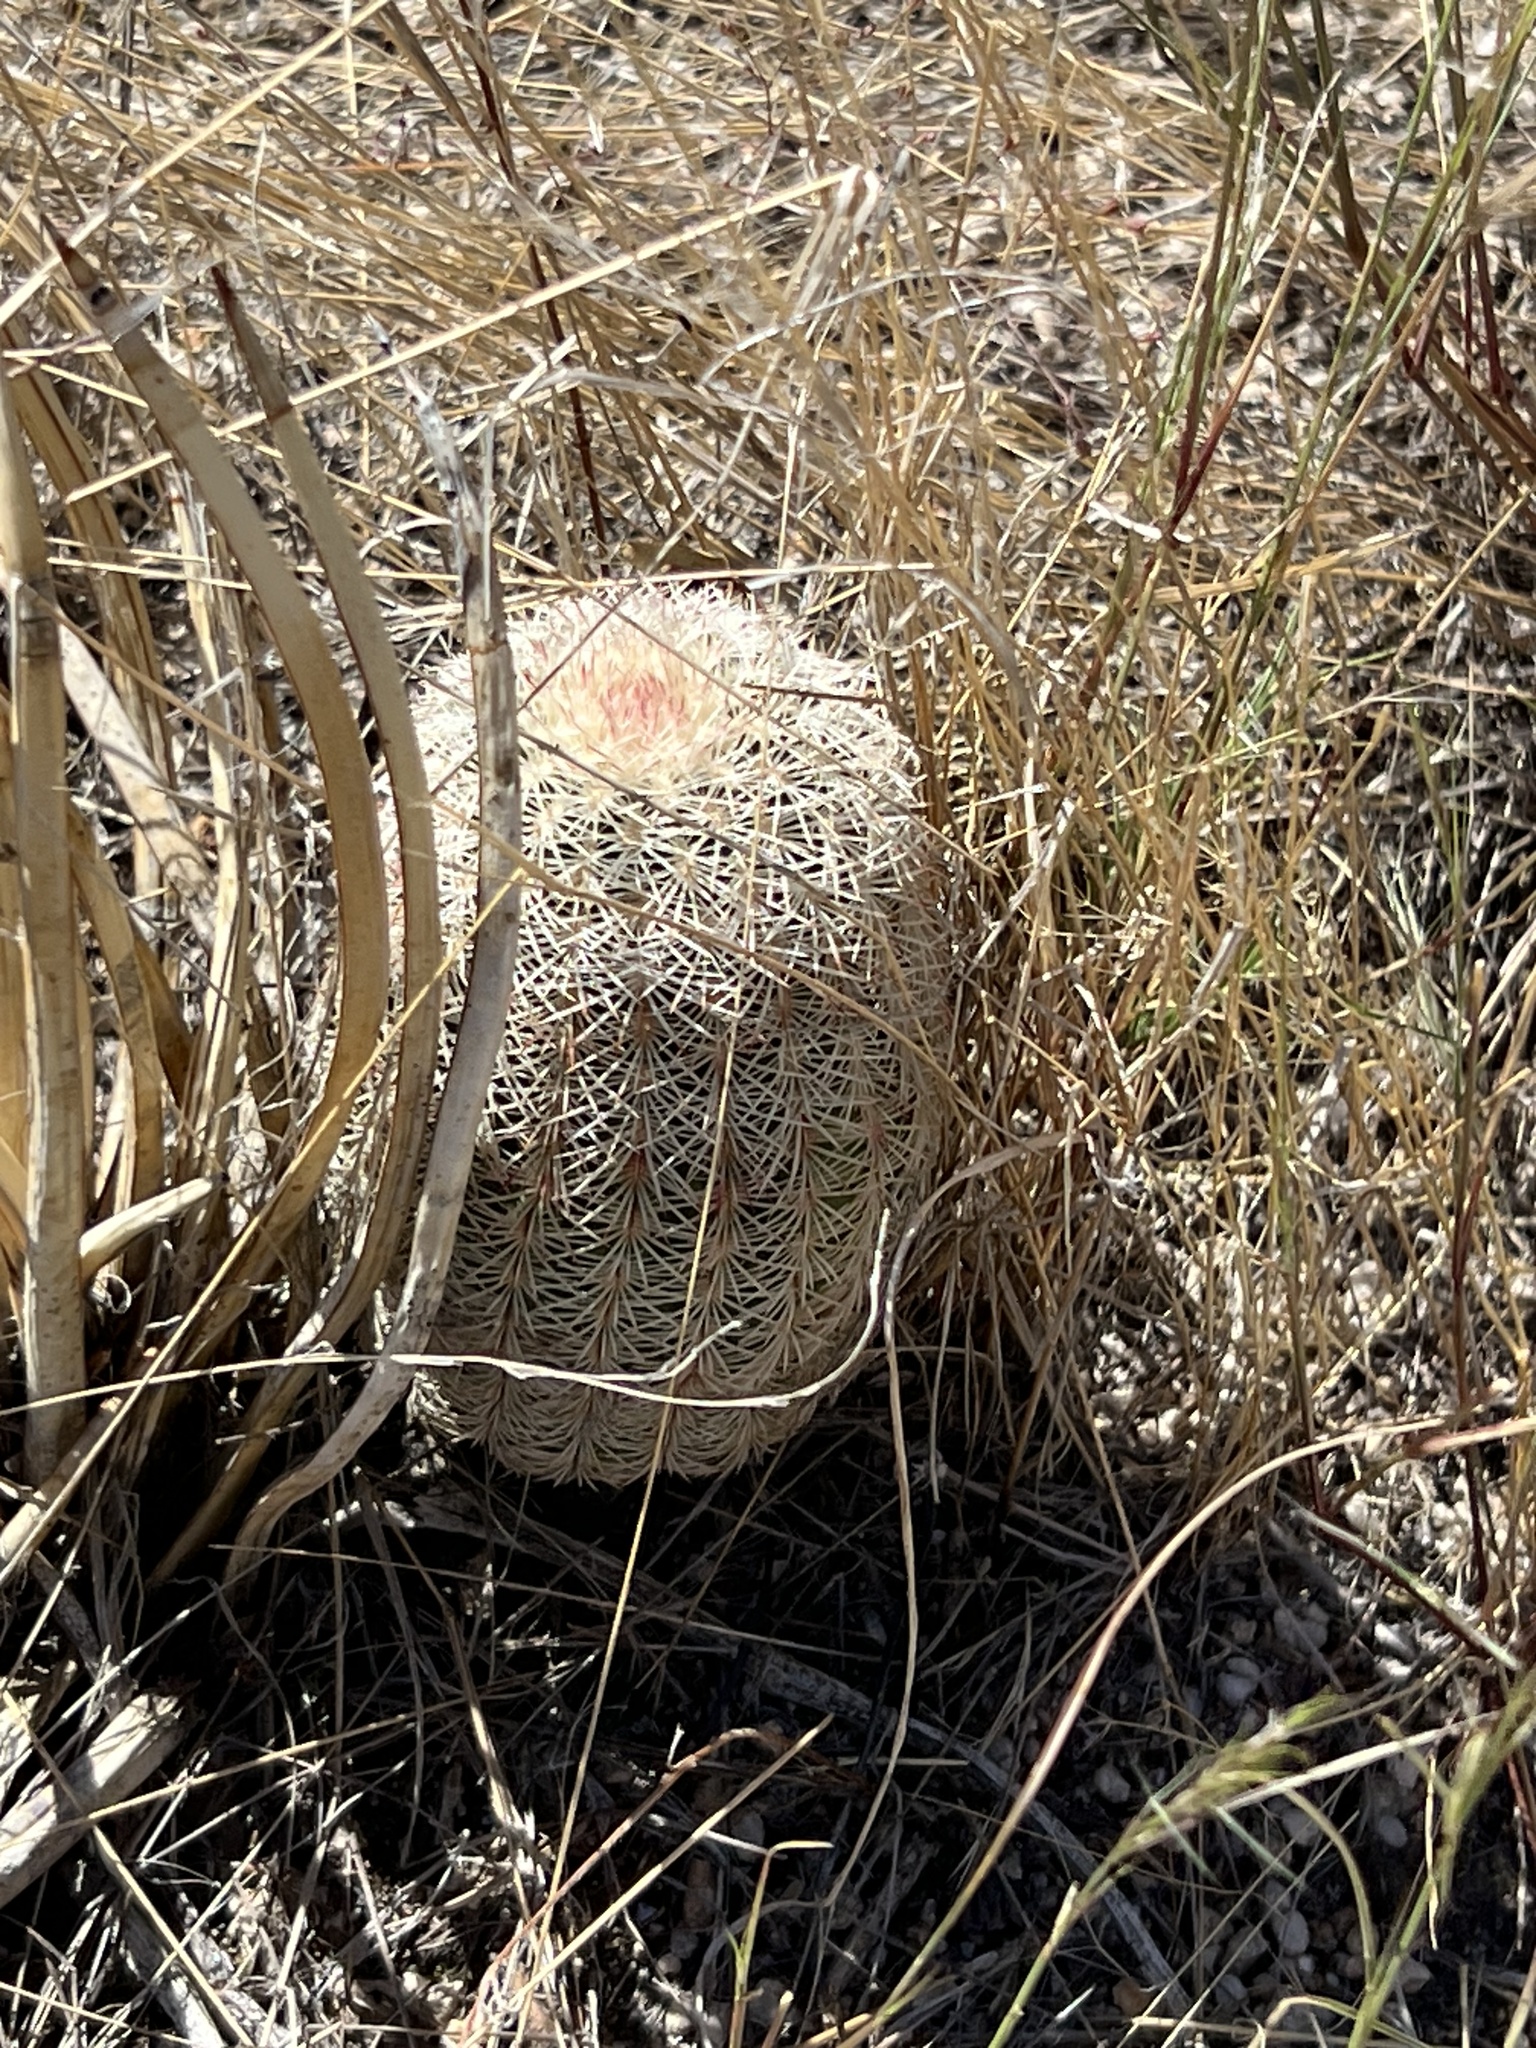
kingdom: Plantae
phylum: Tracheophyta
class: Magnoliopsida
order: Caryophyllales
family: Cactaceae
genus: Echinocereus
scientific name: Echinocereus rigidissimus
